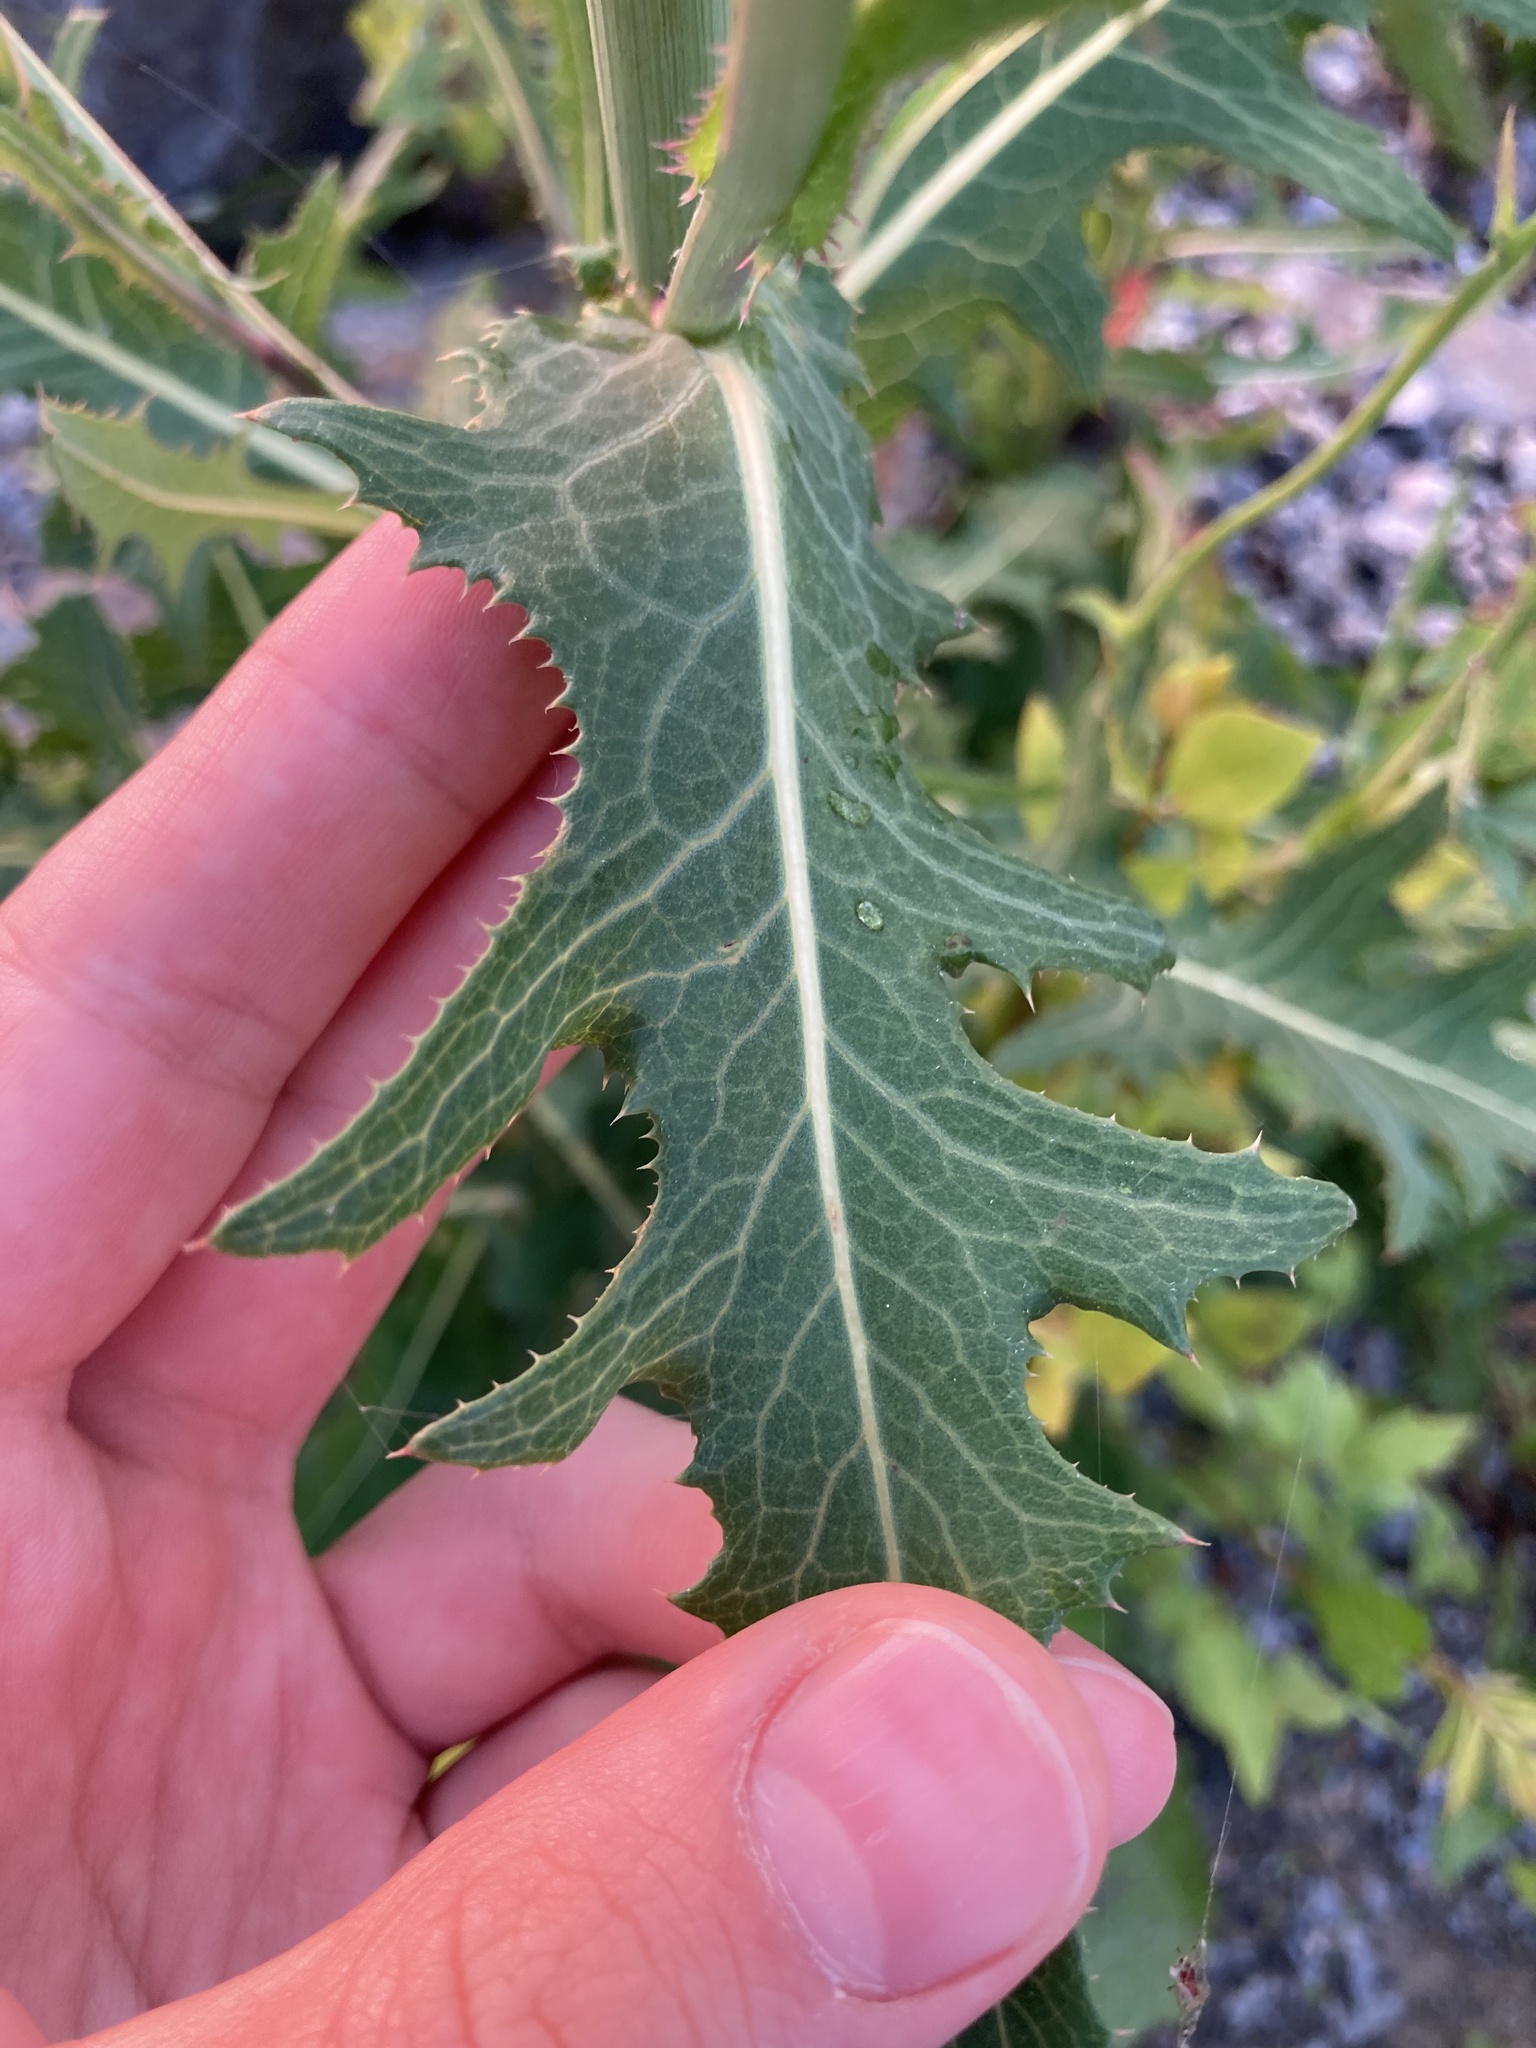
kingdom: Plantae
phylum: Tracheophyta
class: Magnoliopsida
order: Asterales
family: Asteraceae
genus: Sonchus
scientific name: Sonchus arvensis
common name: Perennial sow-thistle
